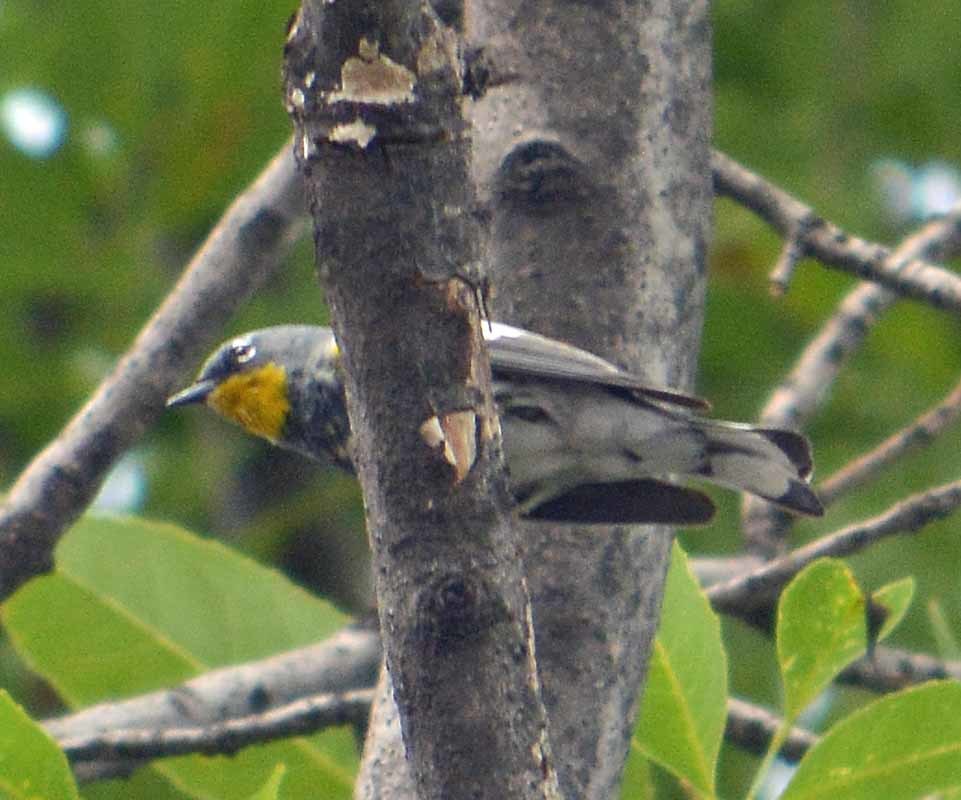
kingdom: Animalia
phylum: Chordata
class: Aves
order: Passeriformes
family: Parulidae
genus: Setophaga
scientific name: Setophaga auduboni
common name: Audubon's warbler
